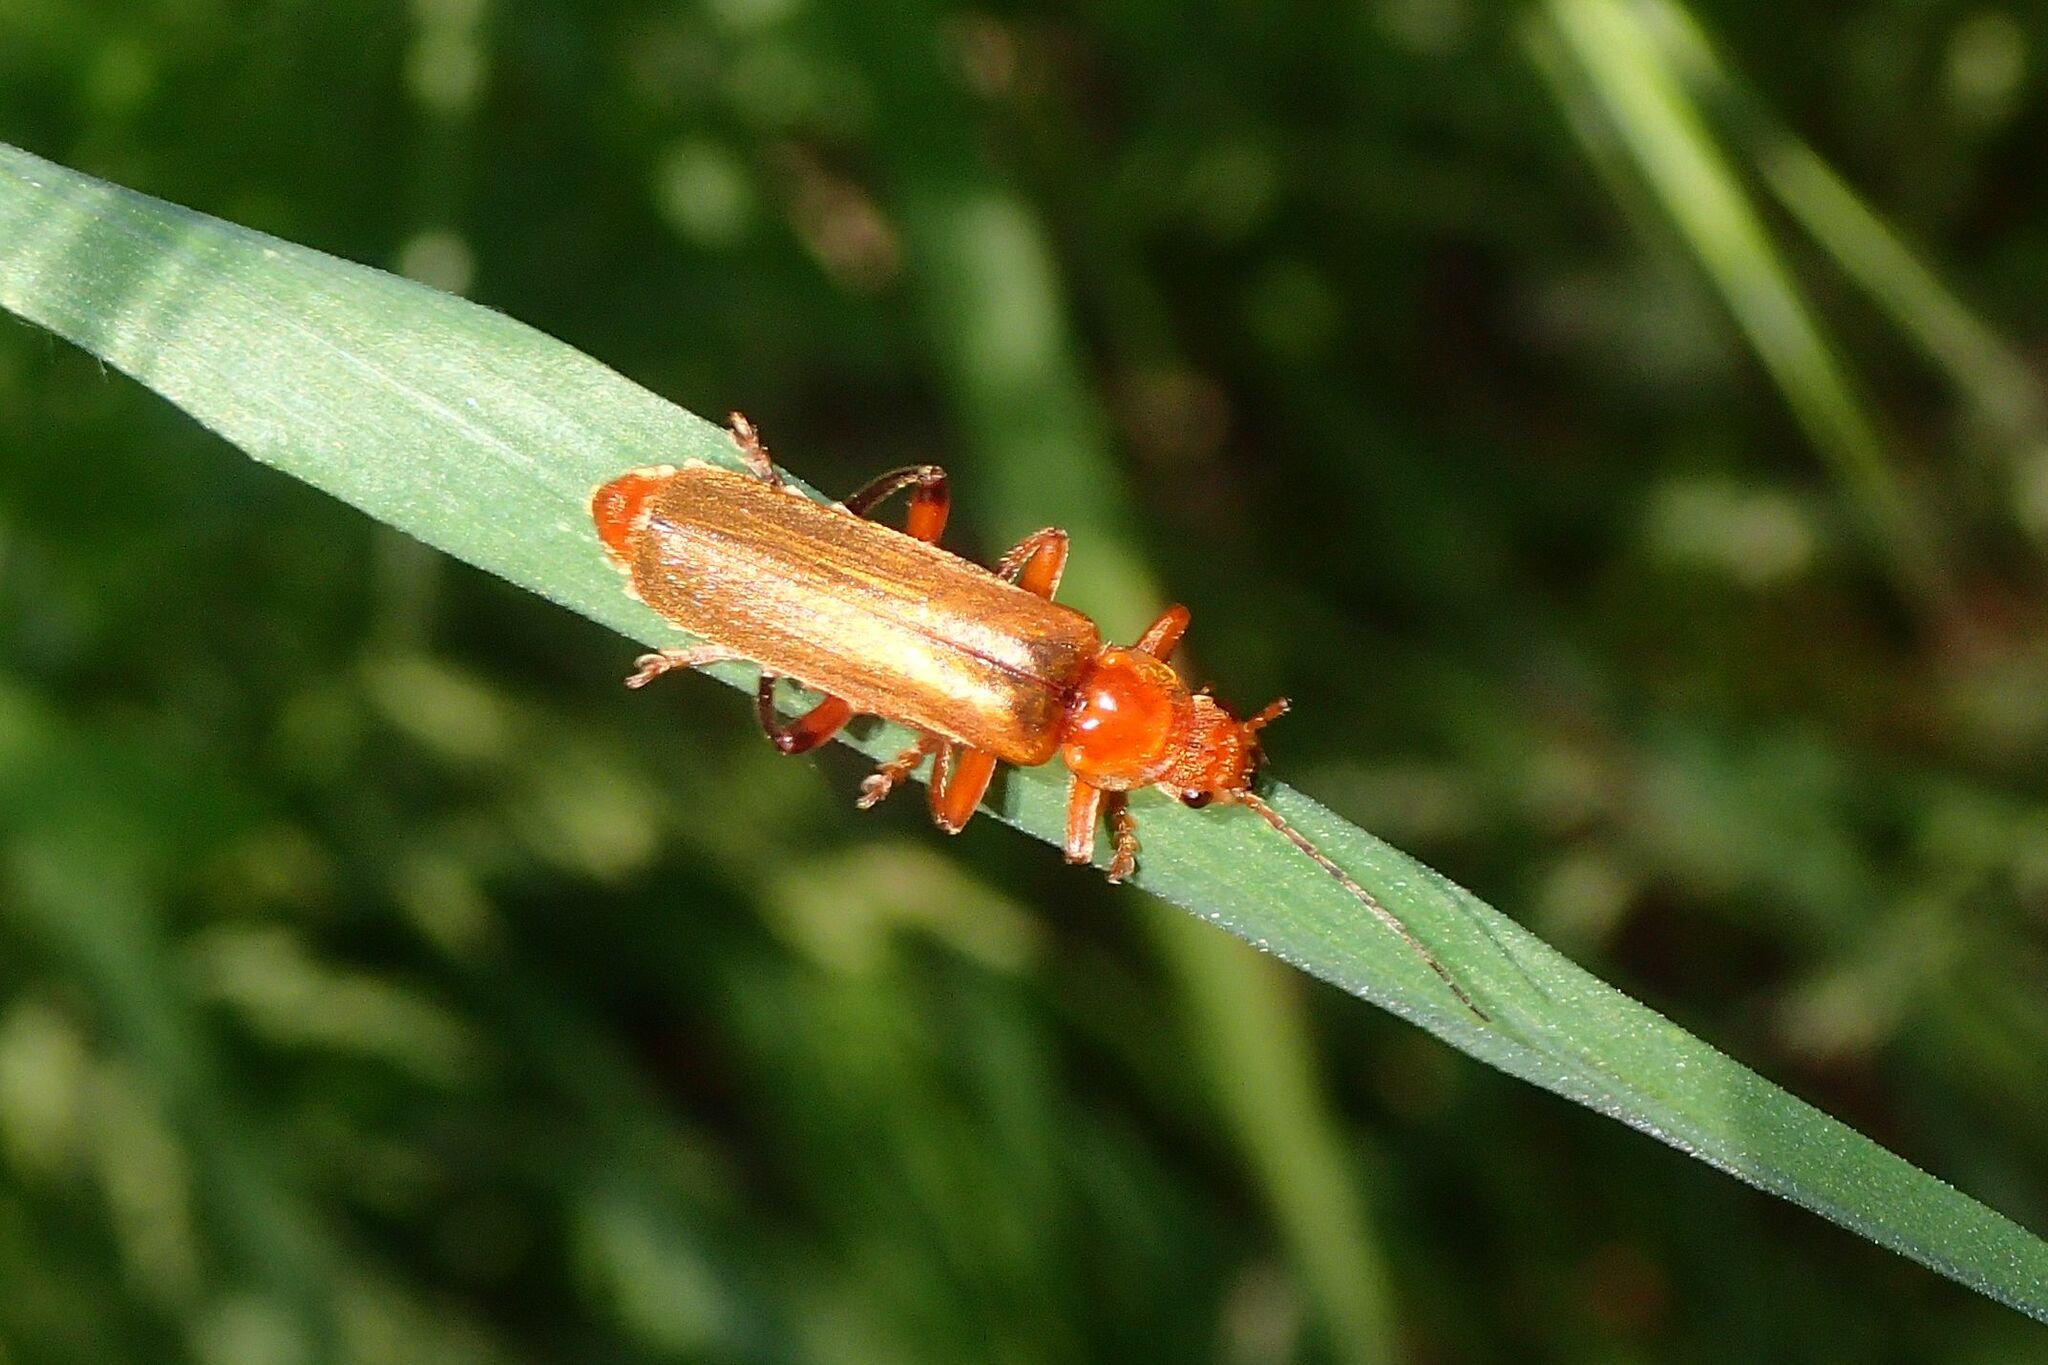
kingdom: Animalia
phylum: Arthropoda
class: Insecta
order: Coleoptera
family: Cantharidae
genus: Cantharis
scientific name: Cantharis livida
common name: Livid soldier beetle
